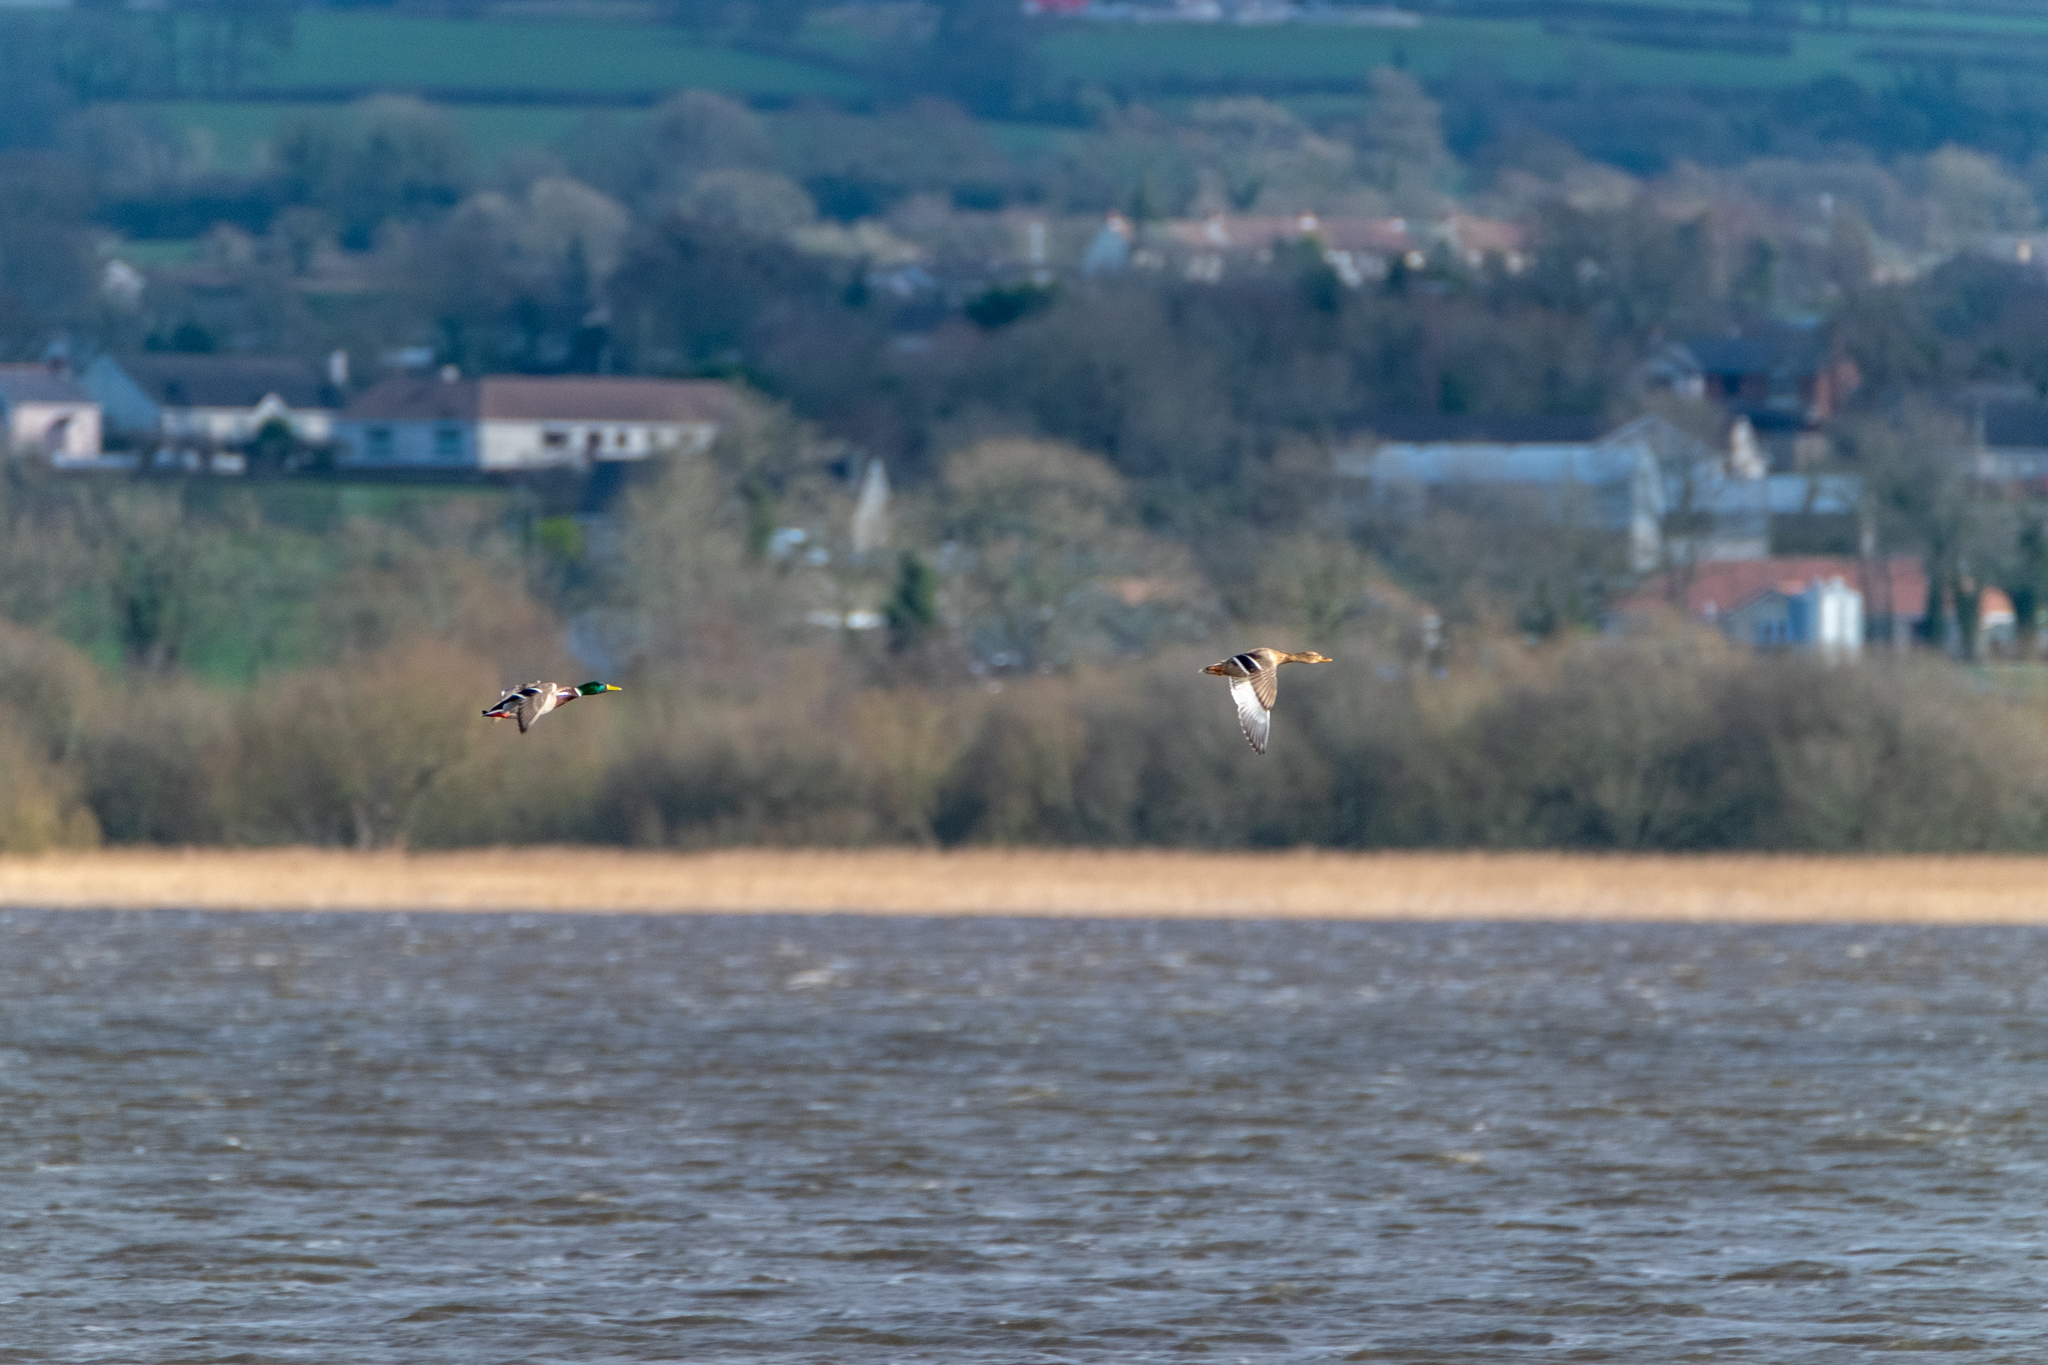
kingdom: Animalia
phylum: Chordata
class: Aves
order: Anseriformes
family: Anatidae
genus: Anas
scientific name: Anas platyrhynchos
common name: Mallard
